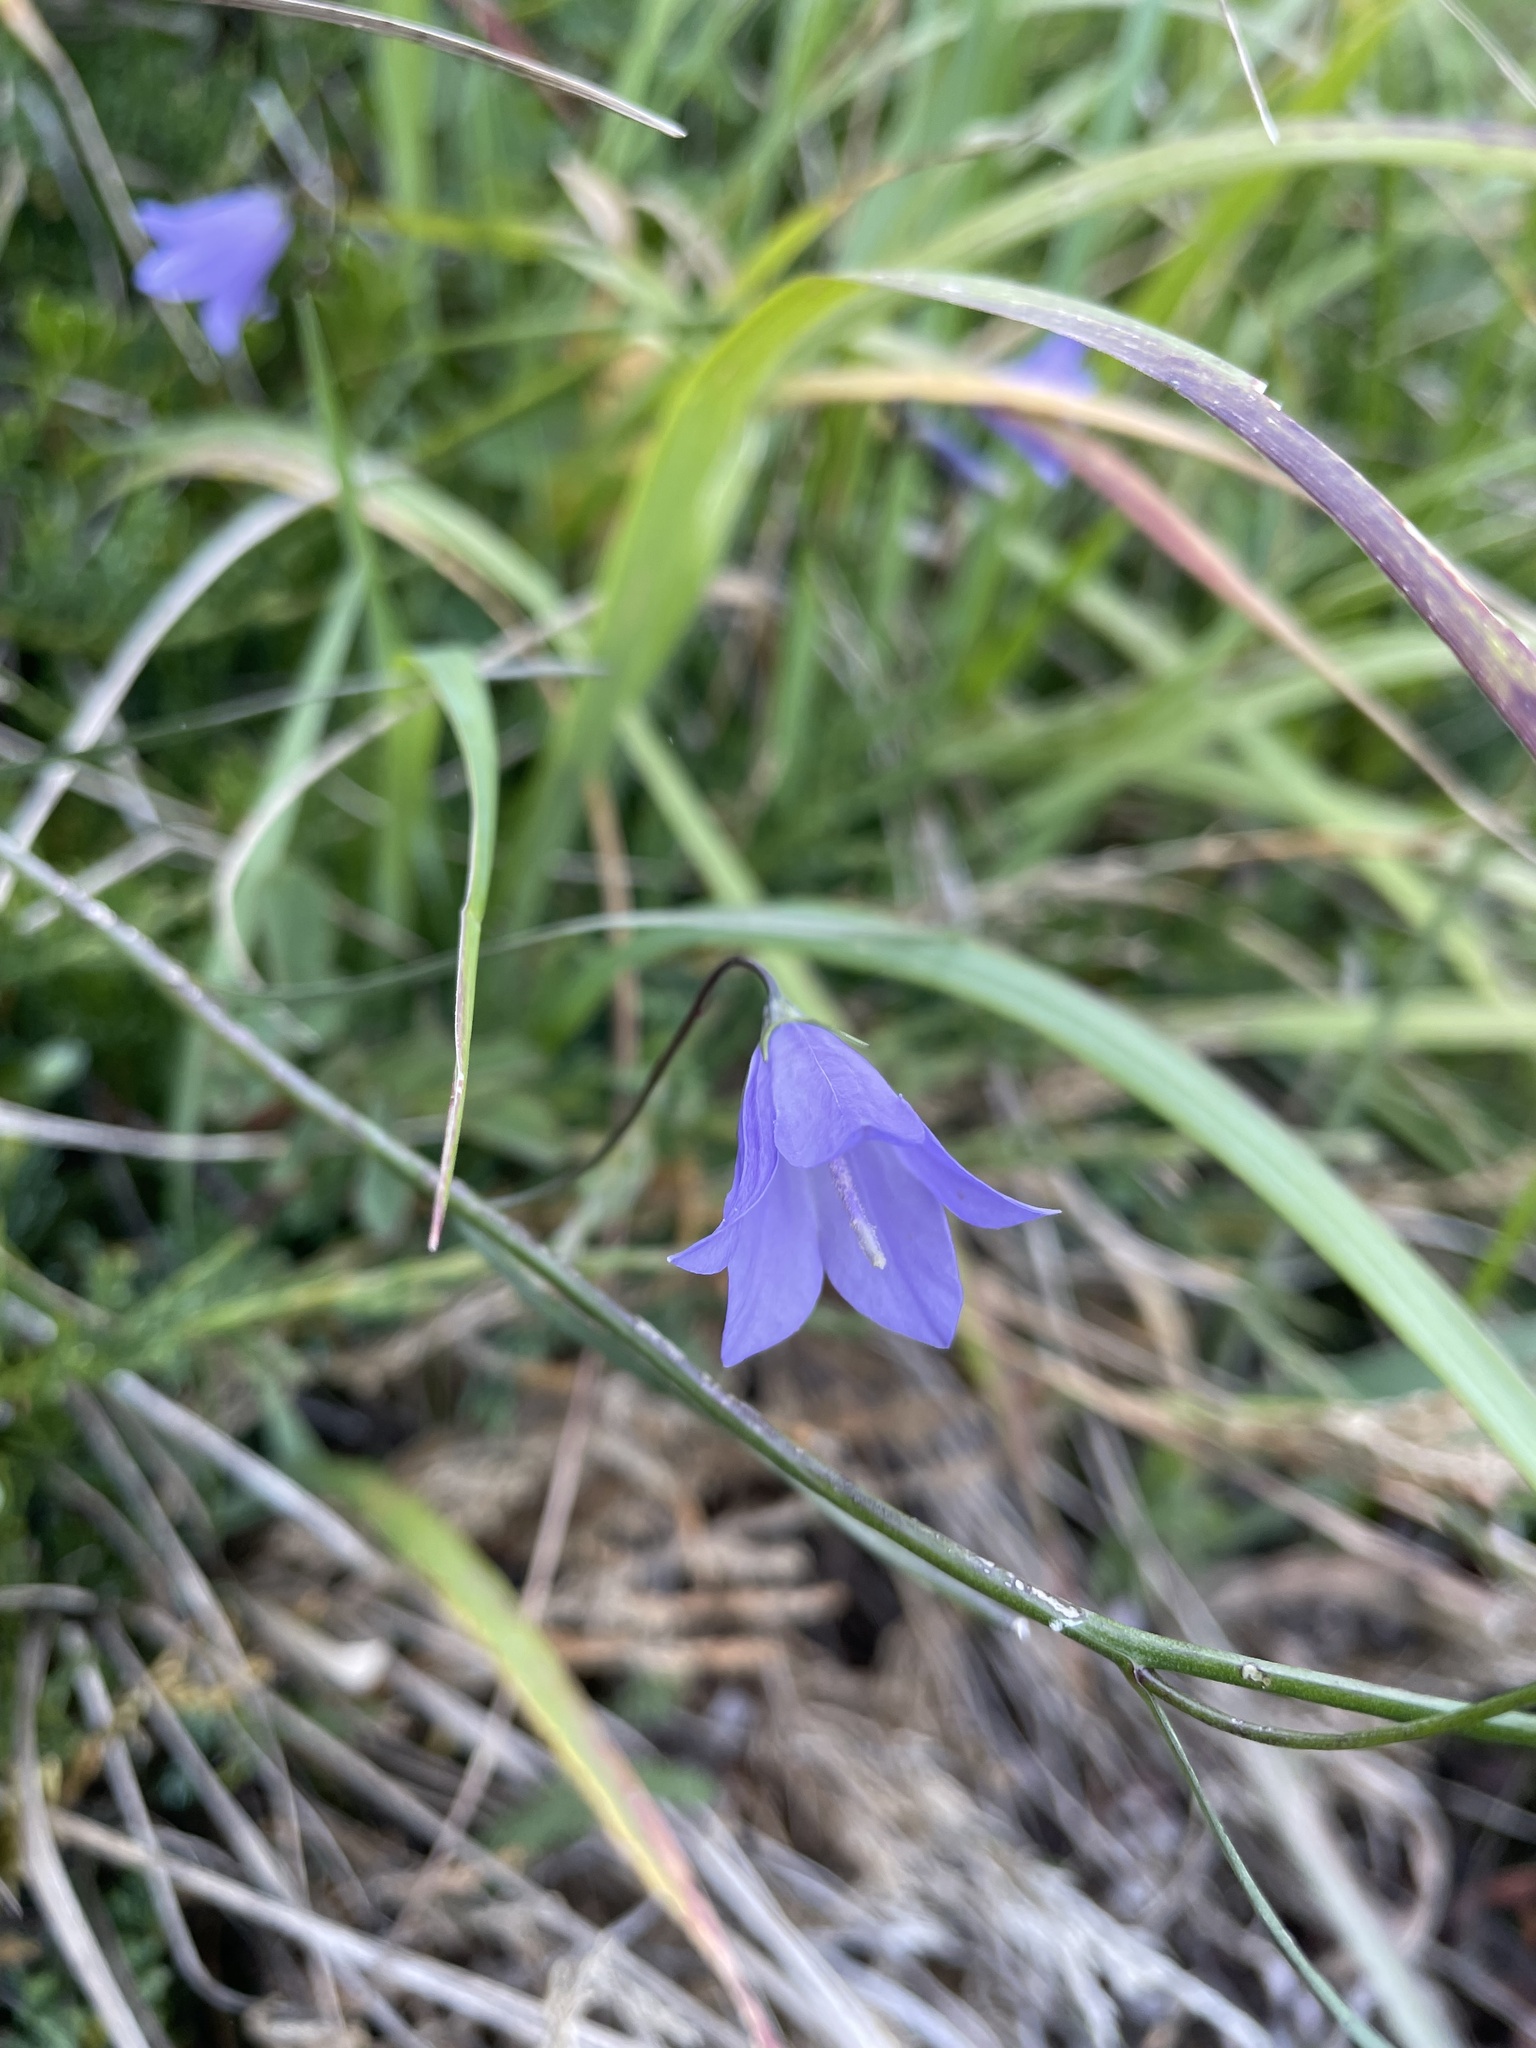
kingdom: Plantae
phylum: Tracheophyta
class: Magnoliopsida
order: Asterales
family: Campanulaceae
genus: Campanula
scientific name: Campanula alaskana
